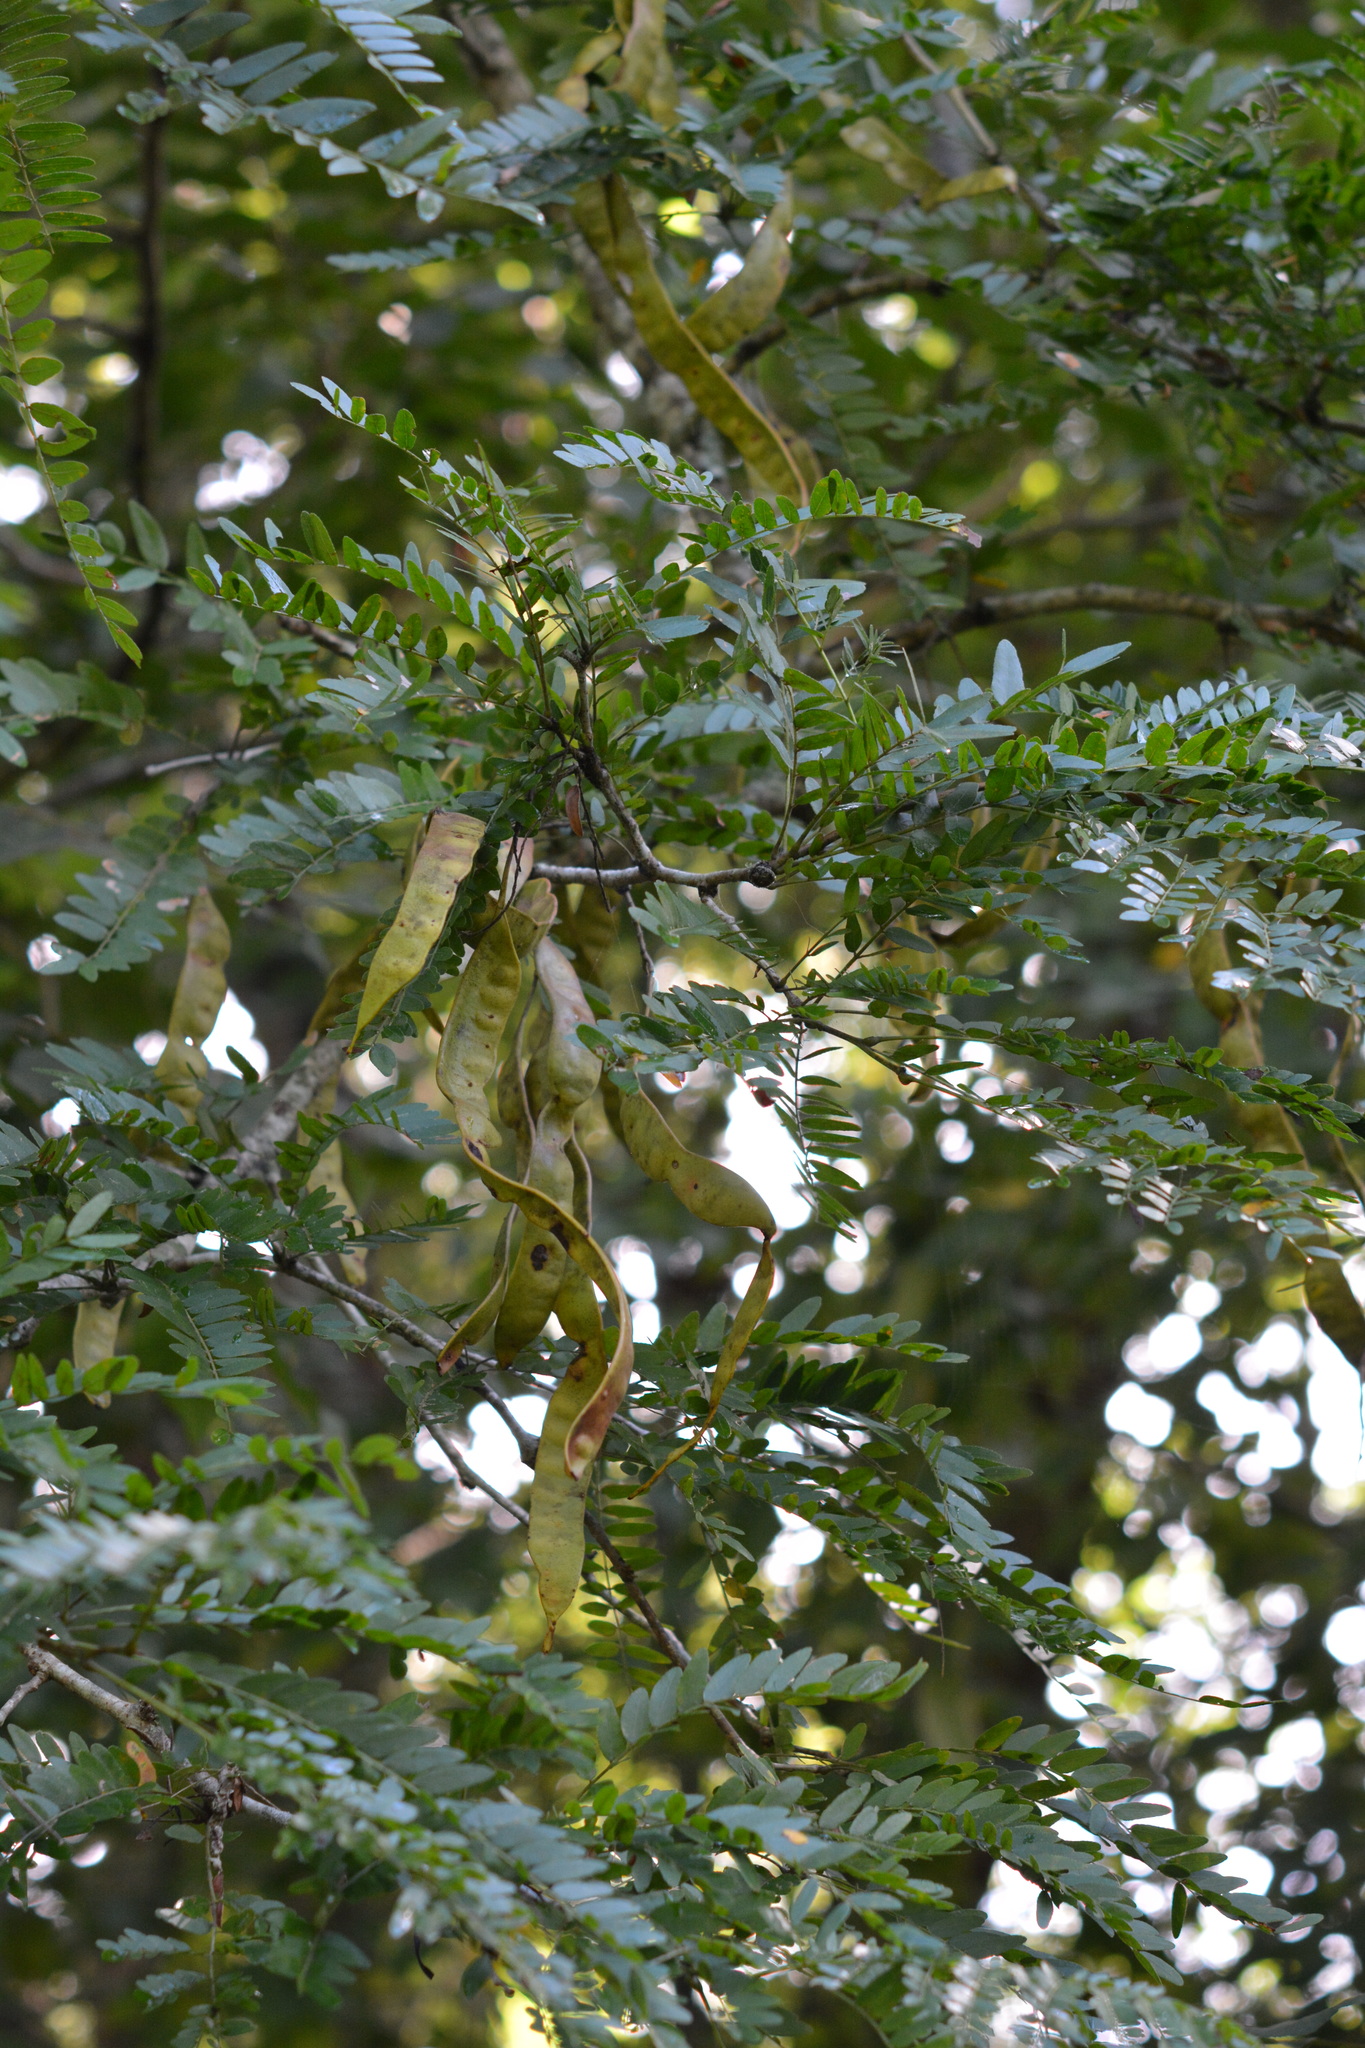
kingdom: Plantae
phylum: Tracheophyta
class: Magnoliopsida
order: Fabales
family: Fabaceae
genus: Gleditsia
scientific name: Gleditsia triacanthos
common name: Common honeylocust
